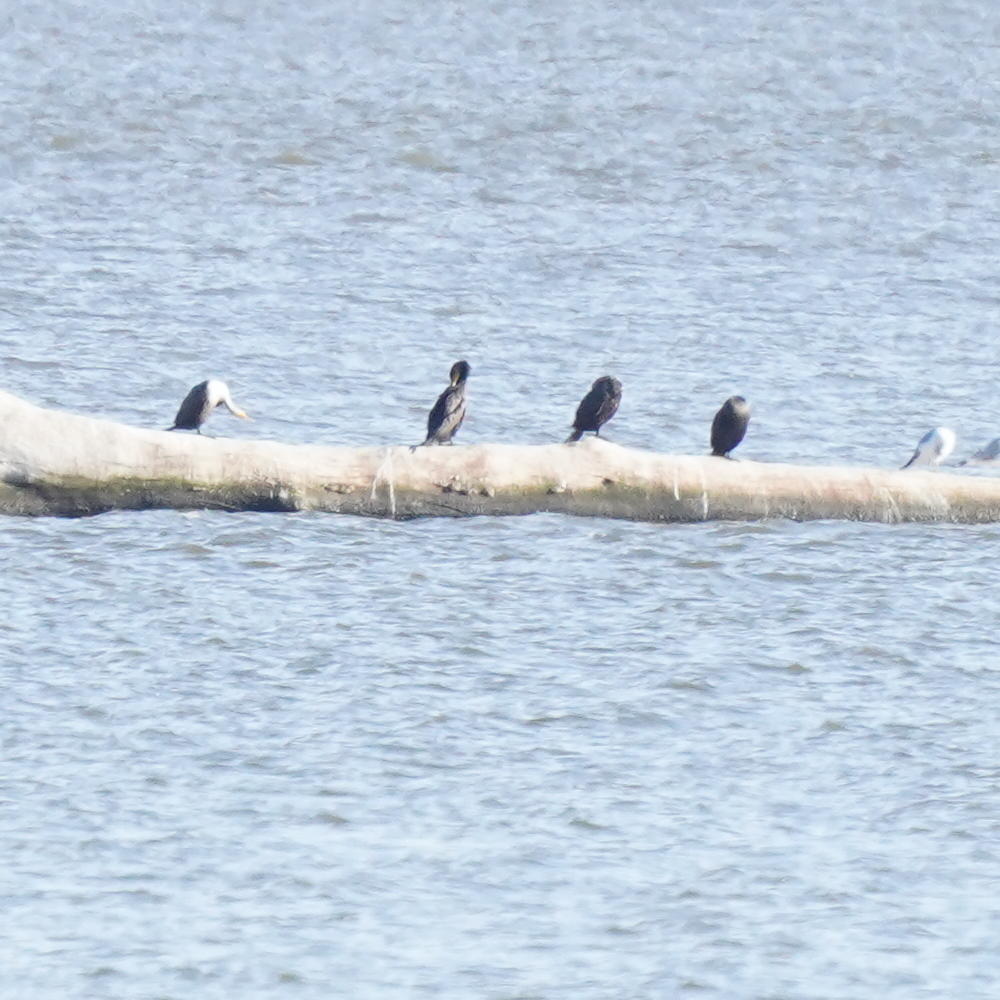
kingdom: Animalia
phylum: Chordata
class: Aves
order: Suliformes
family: Phalacrocoracidae
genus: Phalacrocorax
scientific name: Phalacrocorax auritus
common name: Double-crested cormorant
